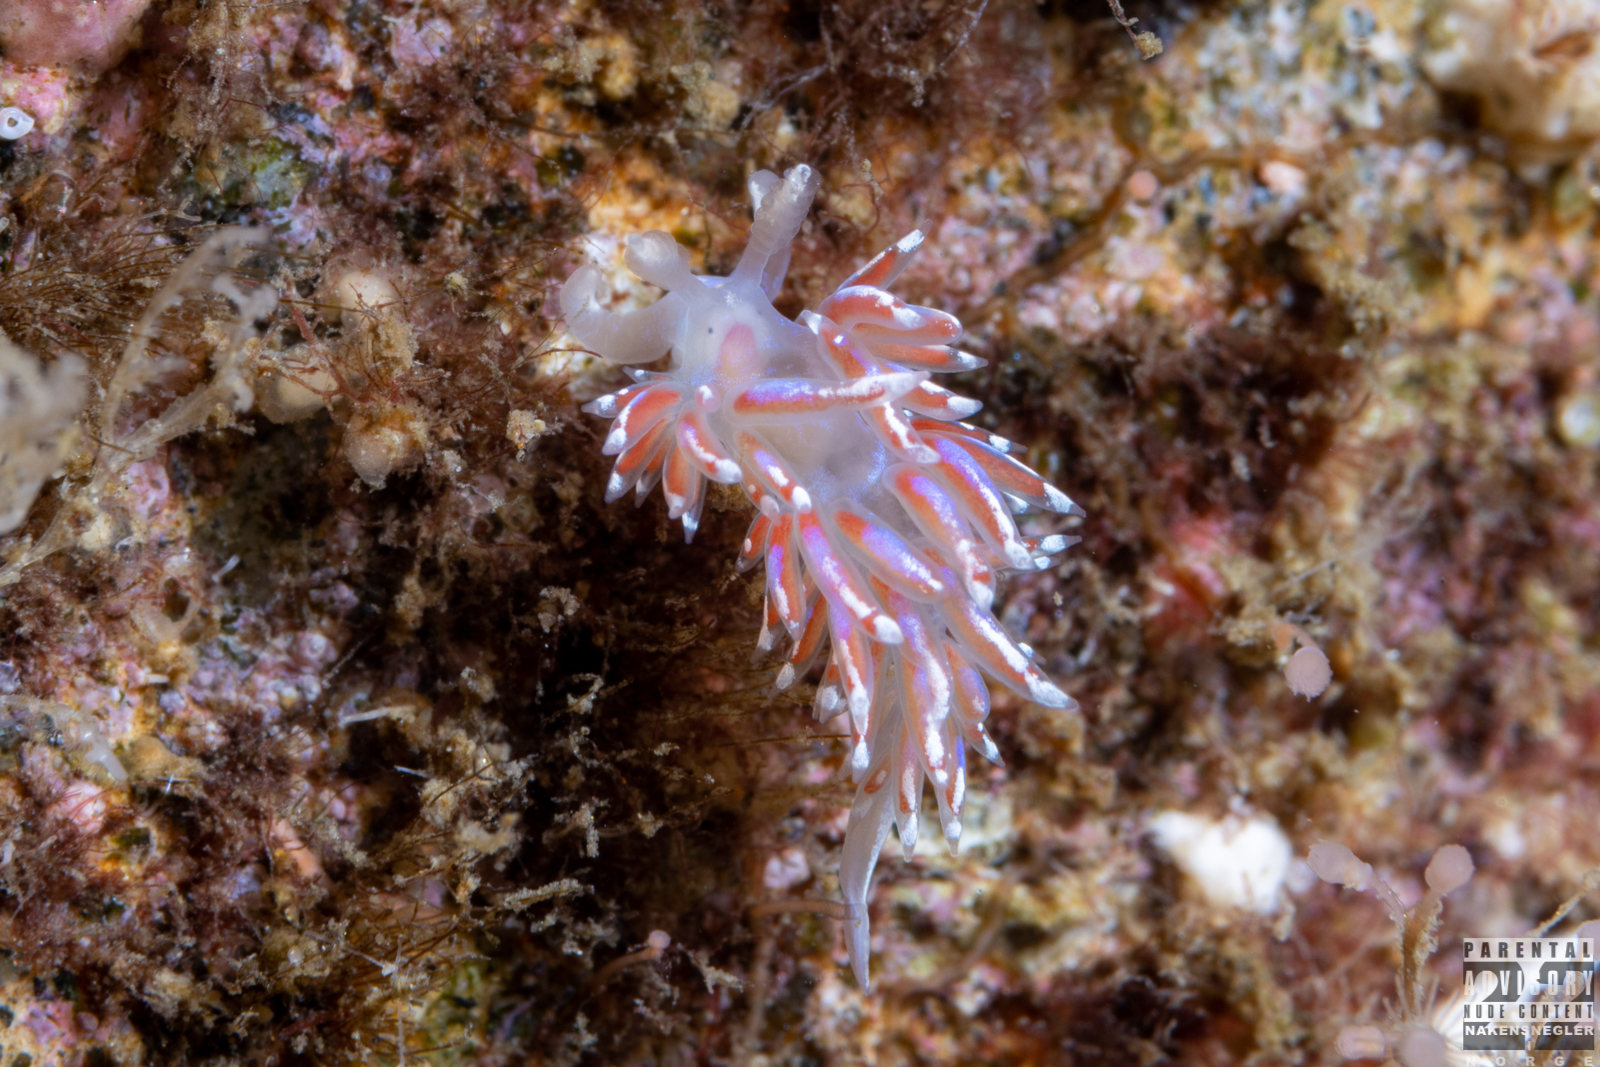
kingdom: Animalia
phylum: Mollusca
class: Gastropoda
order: Nudibranchia
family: Facelinidae
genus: Facelina
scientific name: Facelina auriculata
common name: Slender facelina
